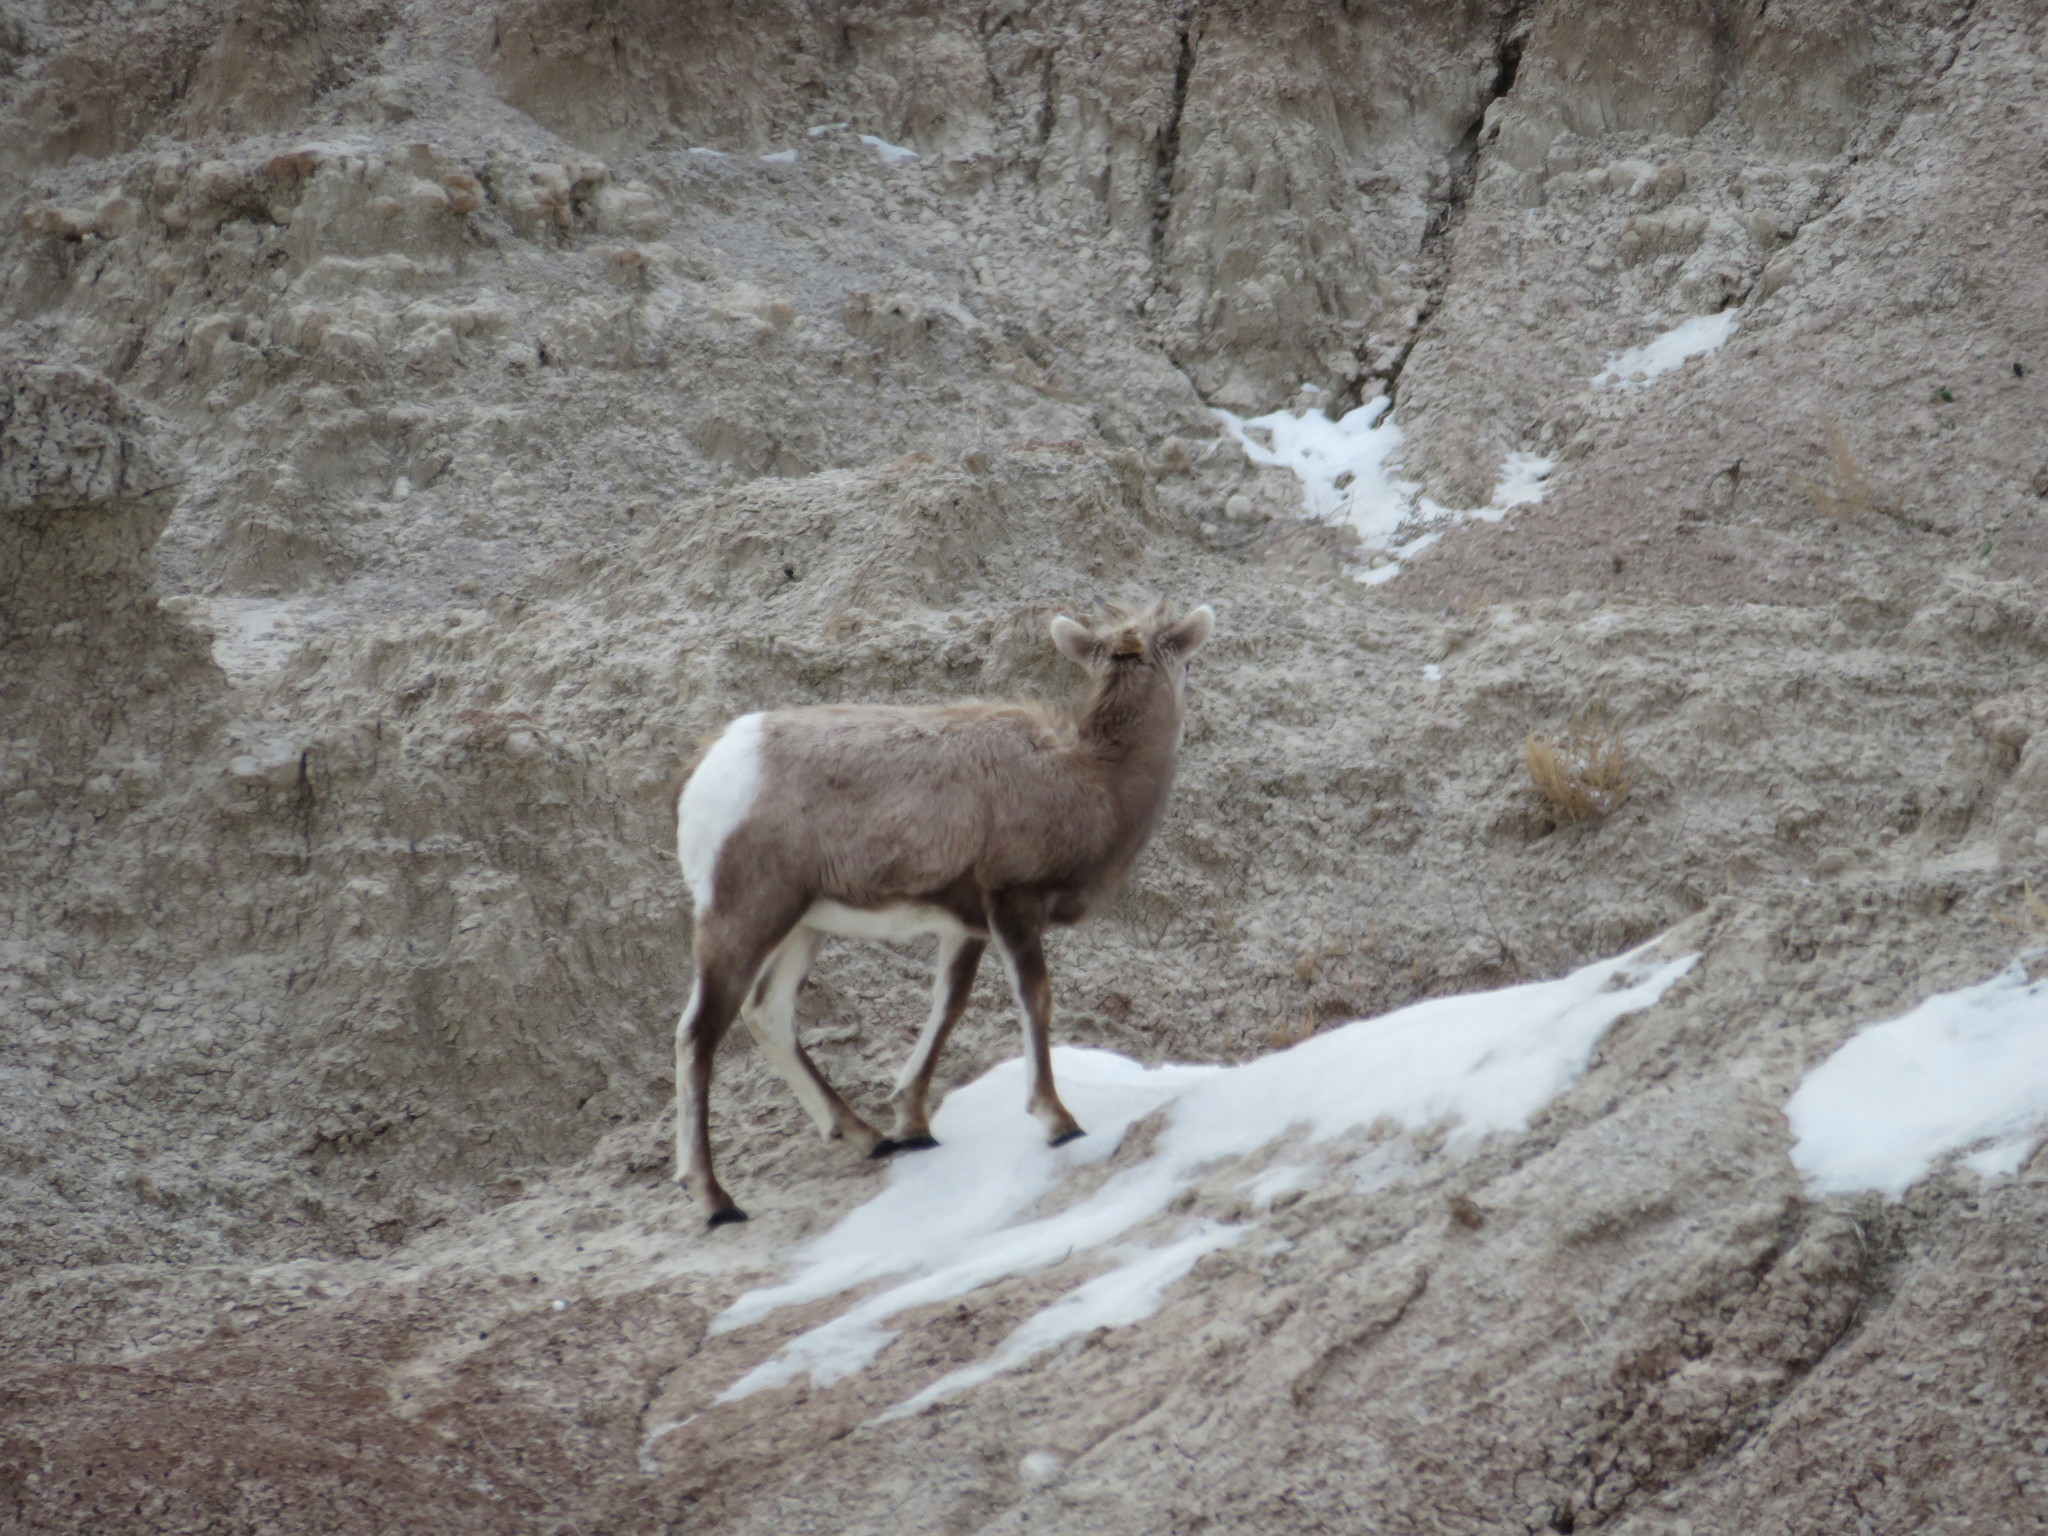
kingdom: Animalia
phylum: Chordata
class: Mammalia
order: Artiodactyla
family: Bovidae
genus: Ovis
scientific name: Ovis canadensis
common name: Bighorn sheep
